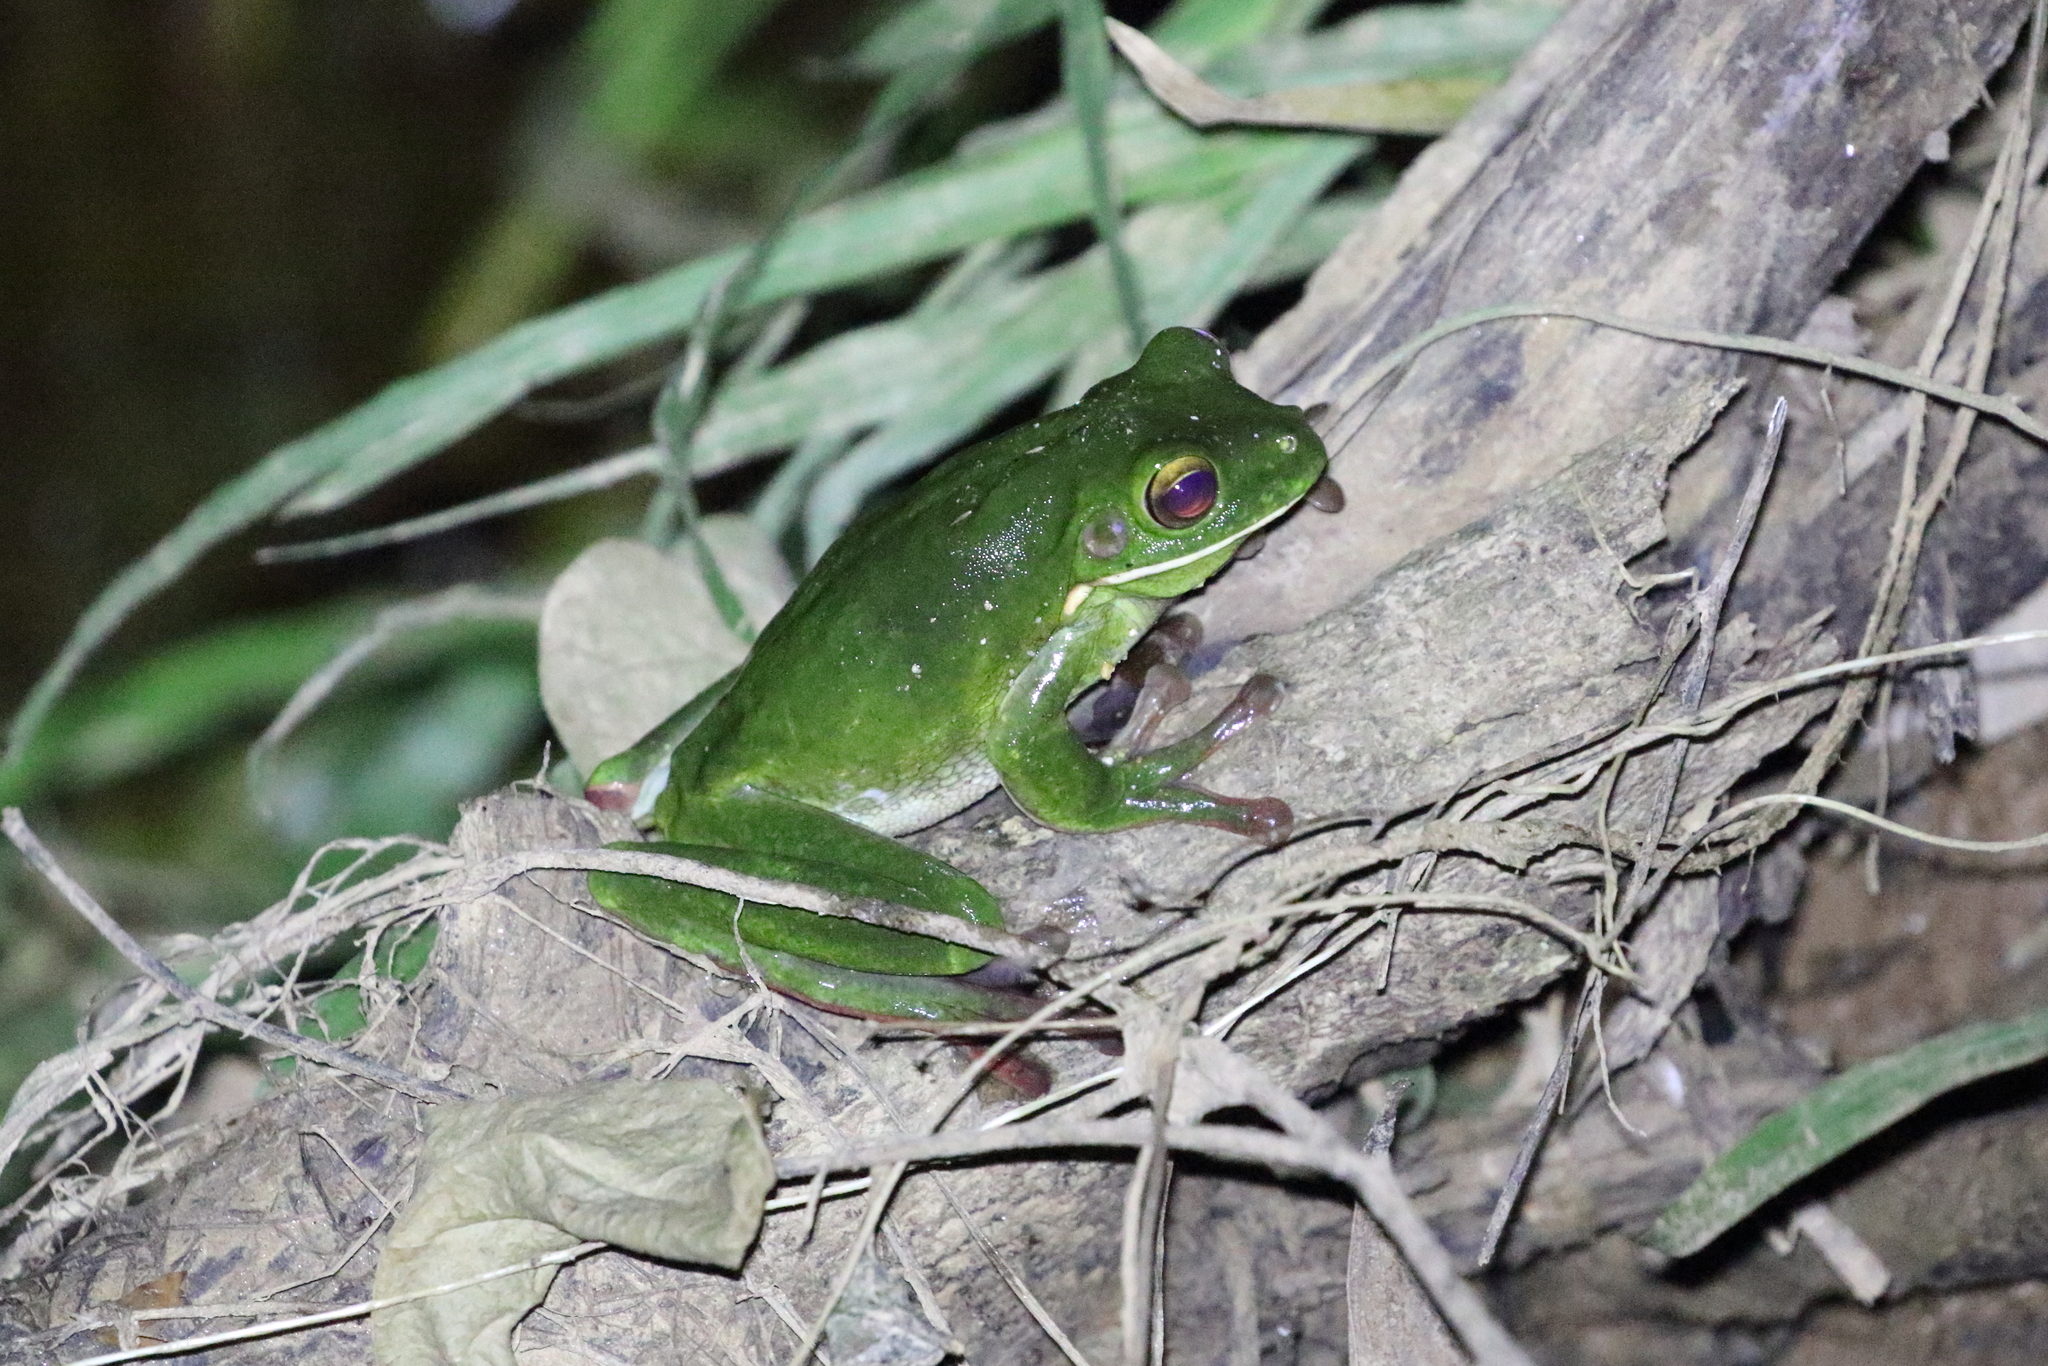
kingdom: Animalia
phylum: Chordata
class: Amphibia
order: Anura
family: Pelodryadidae
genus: Nyctimystes
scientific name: Nyctimystes infrafrenatus
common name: Australian giant treefrog
